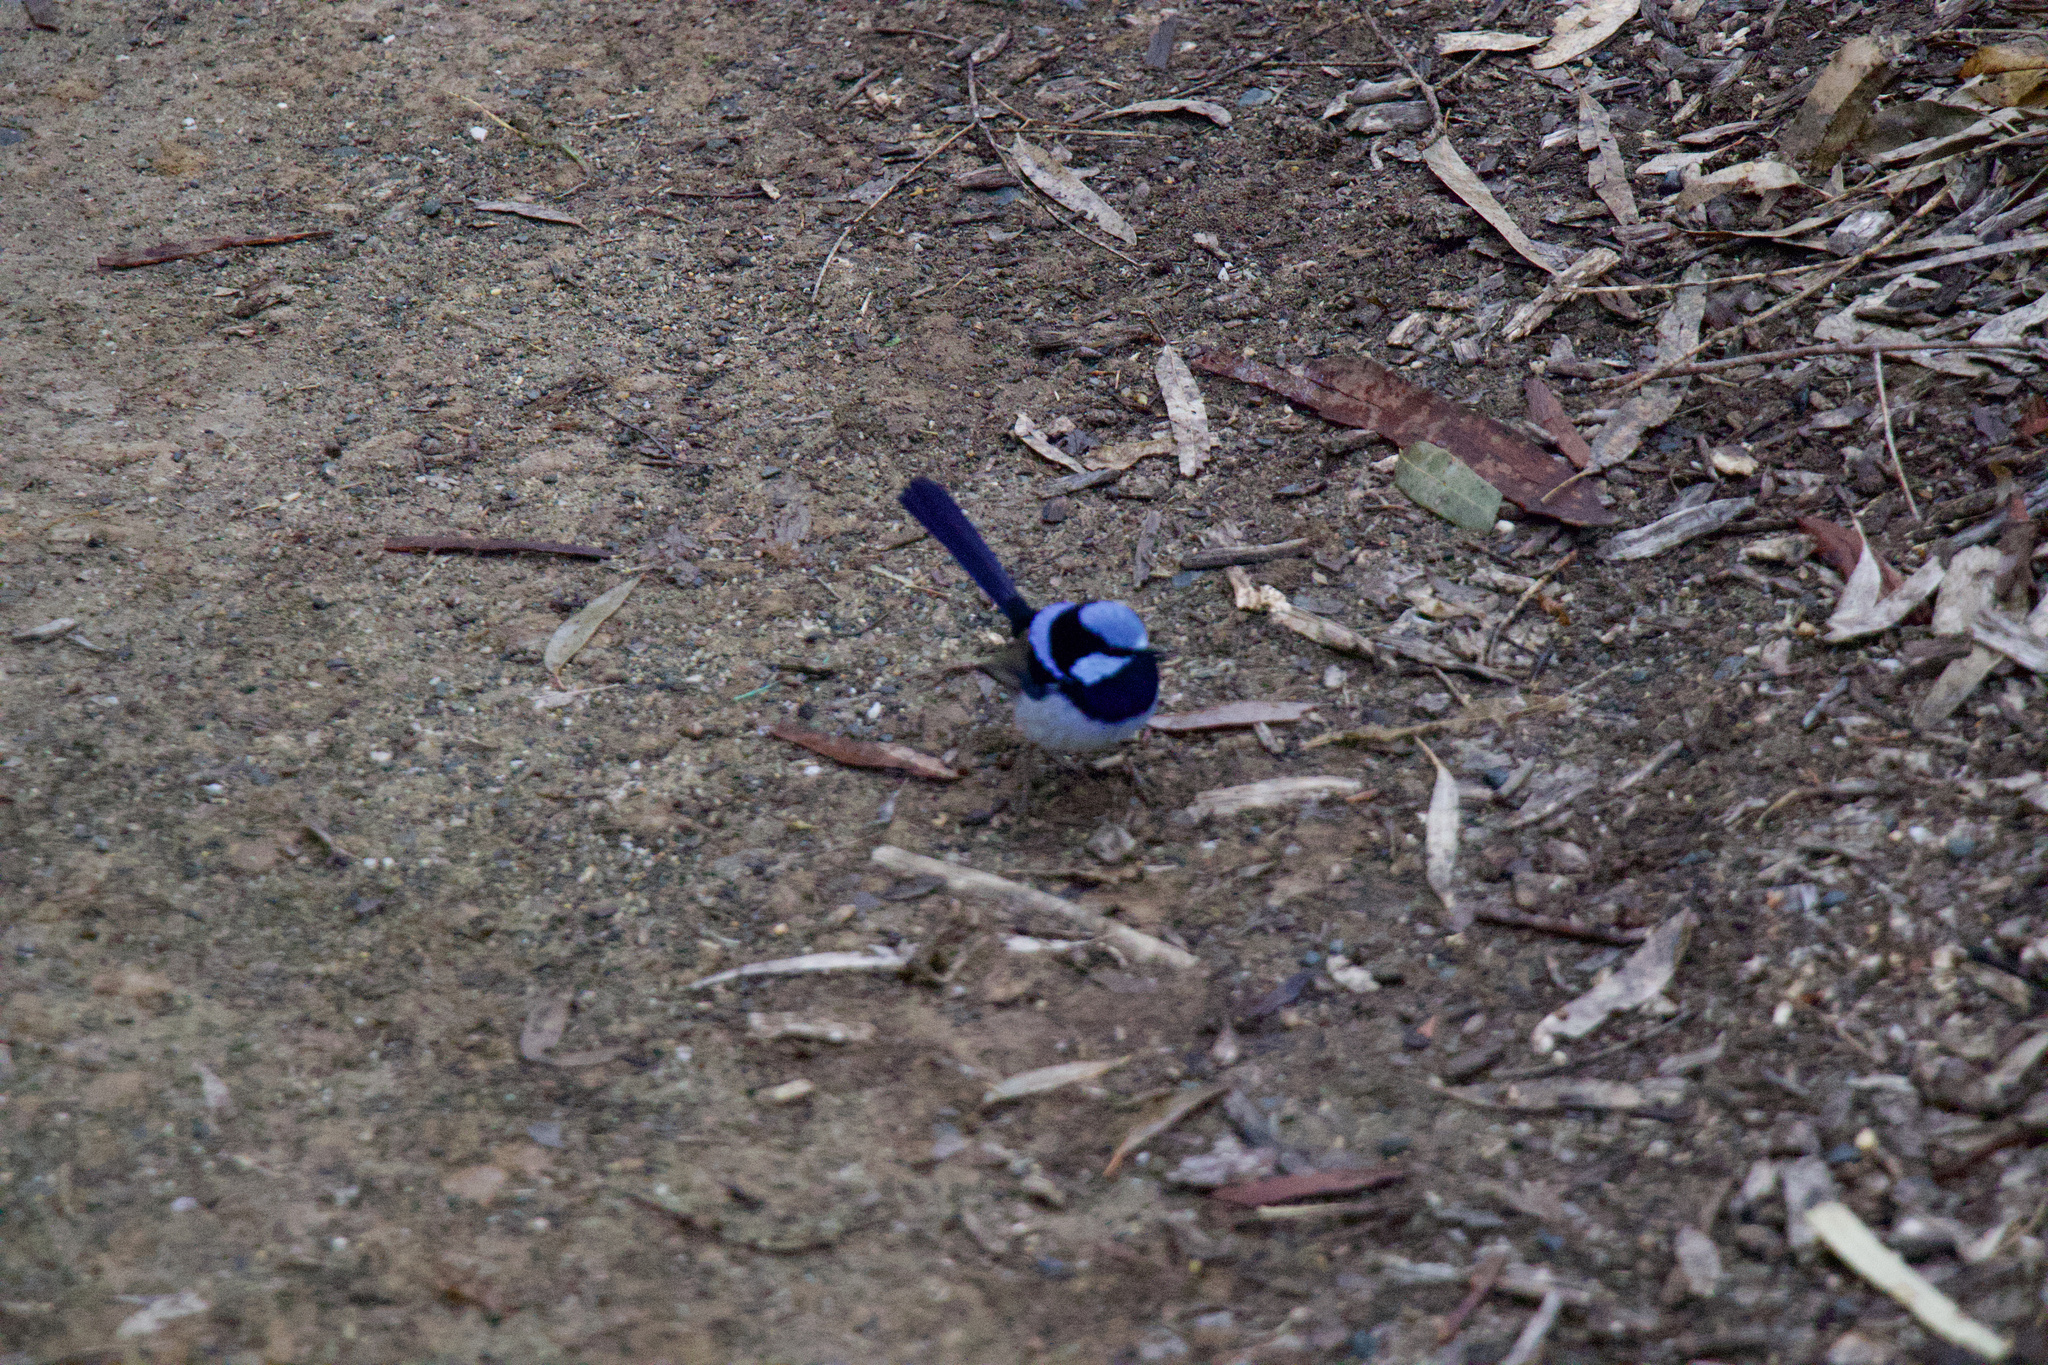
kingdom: Animalia
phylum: Chordata
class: Aves
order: Passeriformes
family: Maluridae
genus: Malurus
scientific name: Malurus cyaneus
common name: Superb fairywren
